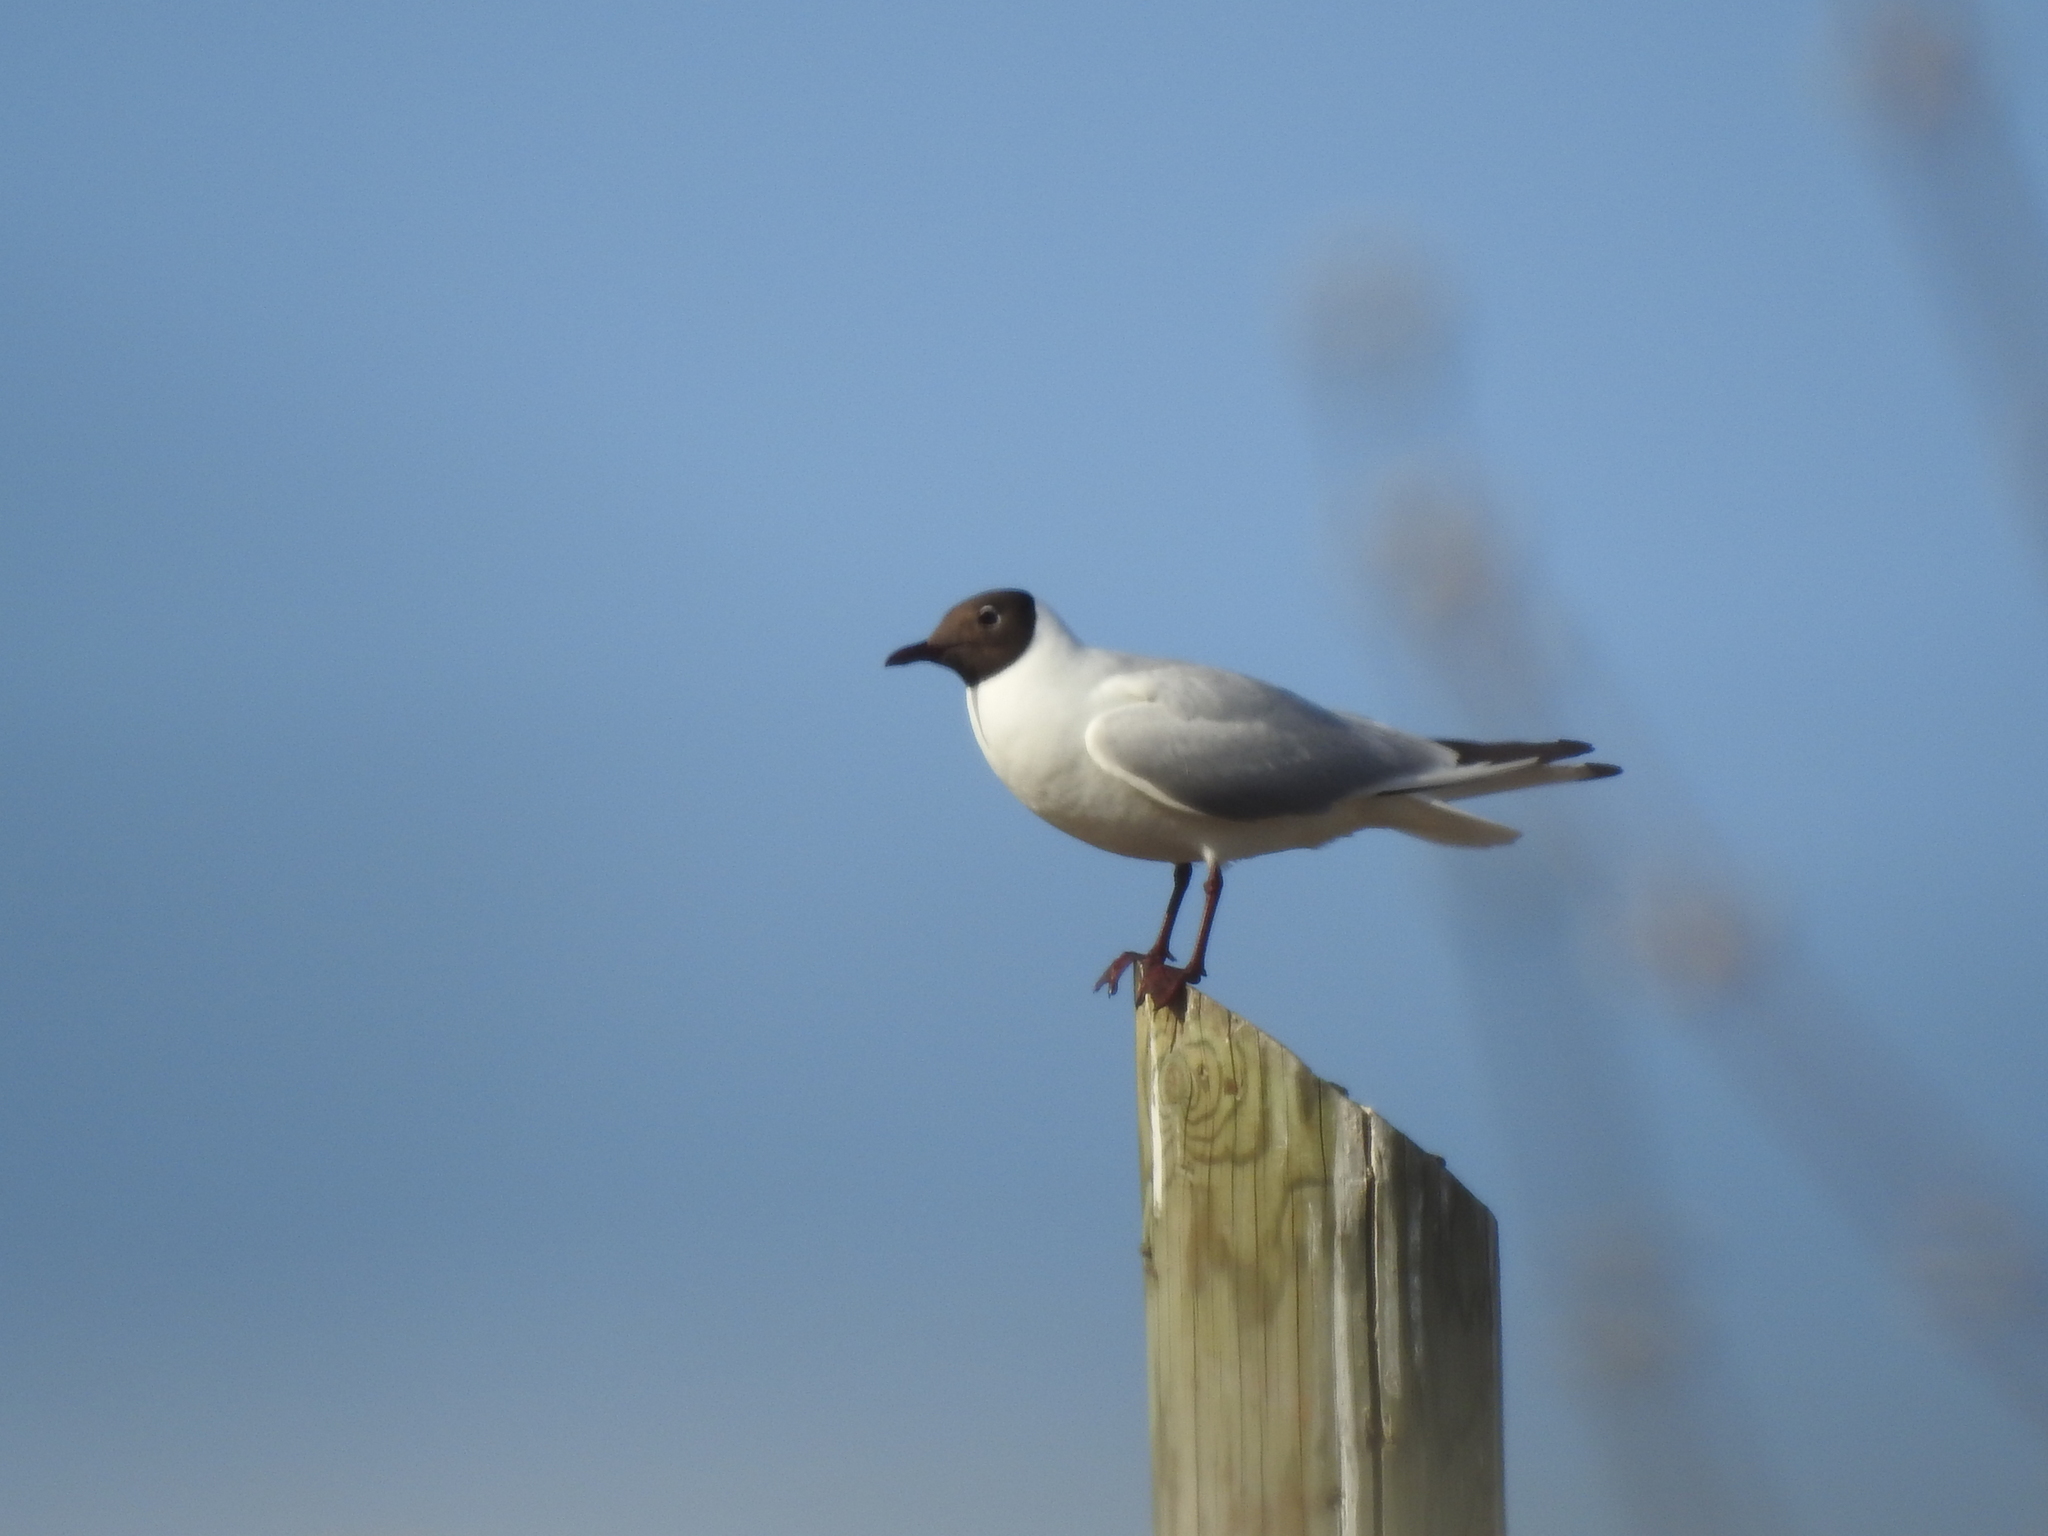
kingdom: Animalia
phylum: Chordata
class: Aves
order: Charadriiformes
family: Laridae
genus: Chroicocephalus
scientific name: Chroicocephalus ridibundus
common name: Black-headed gull
